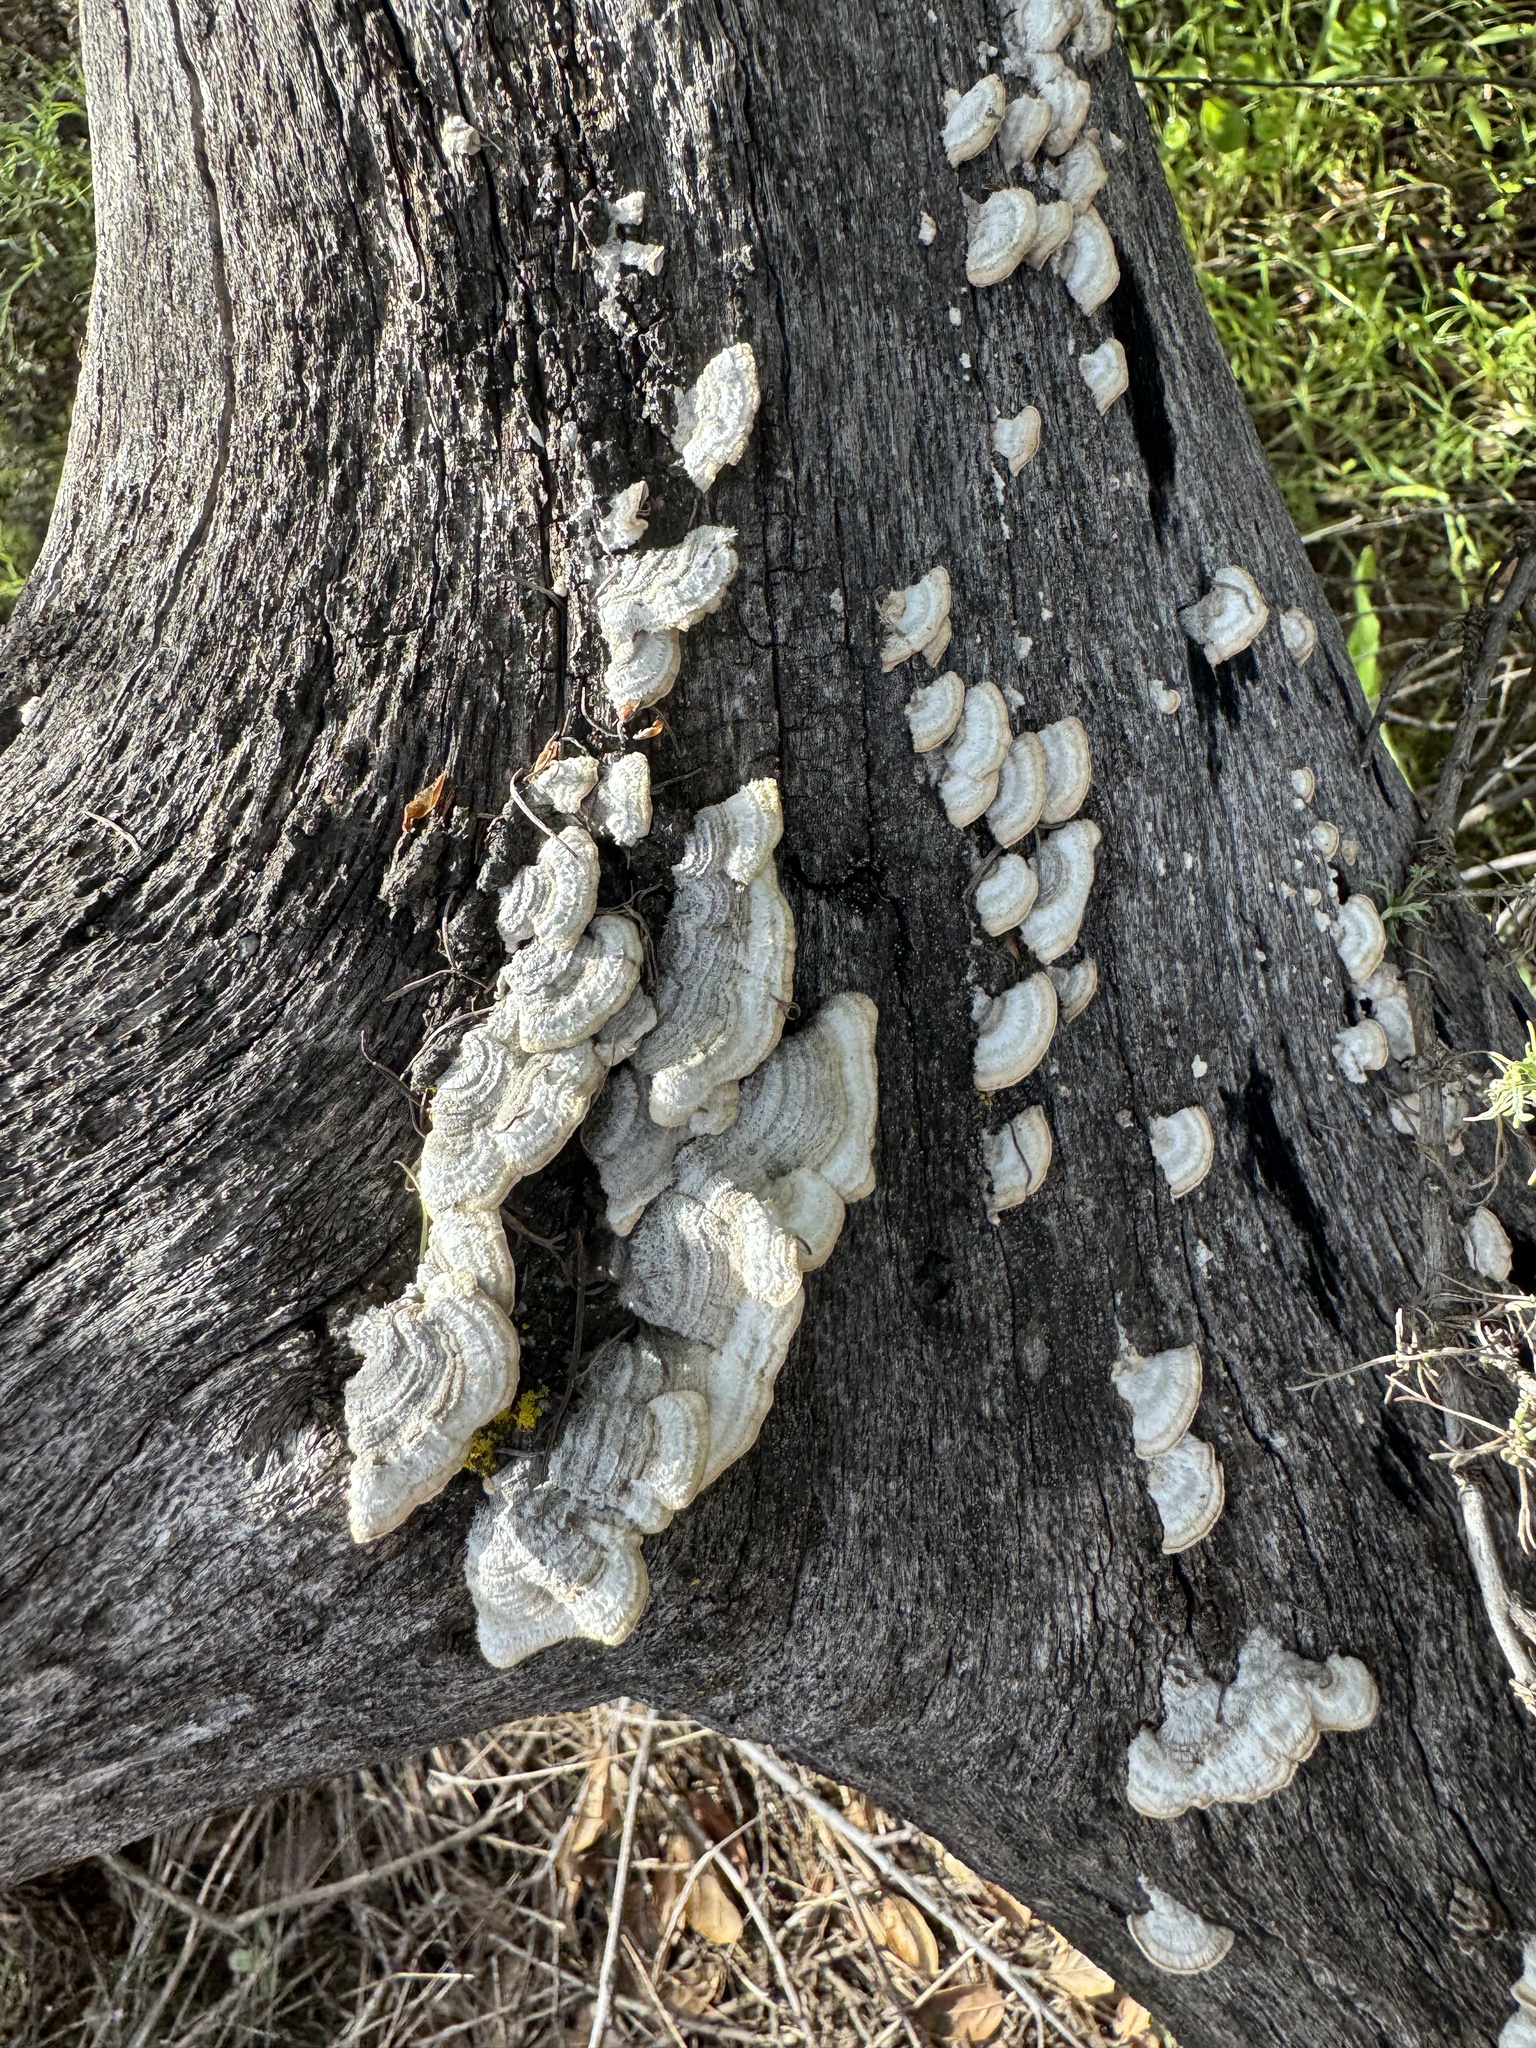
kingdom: Fungi
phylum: Basidiomycota
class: Agaricomycetes
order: Russulales
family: Stereaceae
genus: Stereum
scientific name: Stereum hirsutum
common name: Hairy curtain crust
